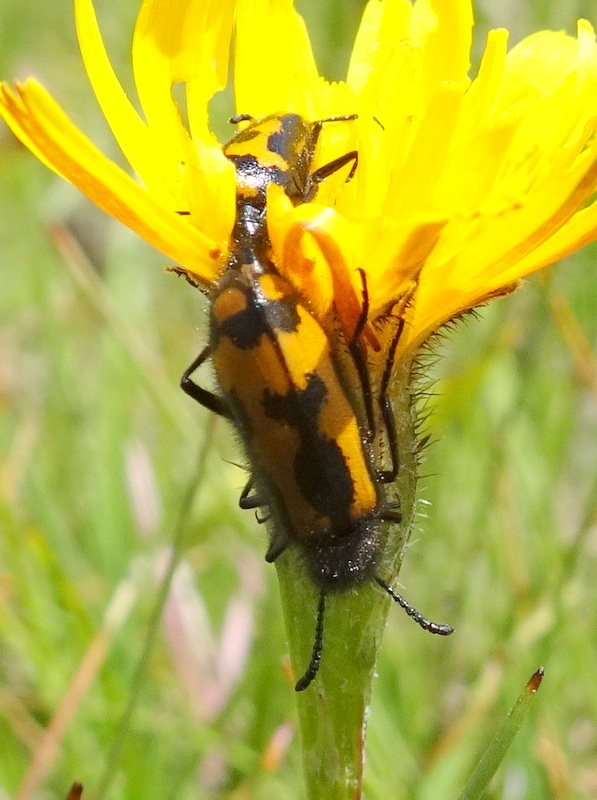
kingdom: Animalia
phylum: Arthropoda
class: Insecta
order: Coleoptera
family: Meloidae
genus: Mylabris
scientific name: Mylabris flexuosa
